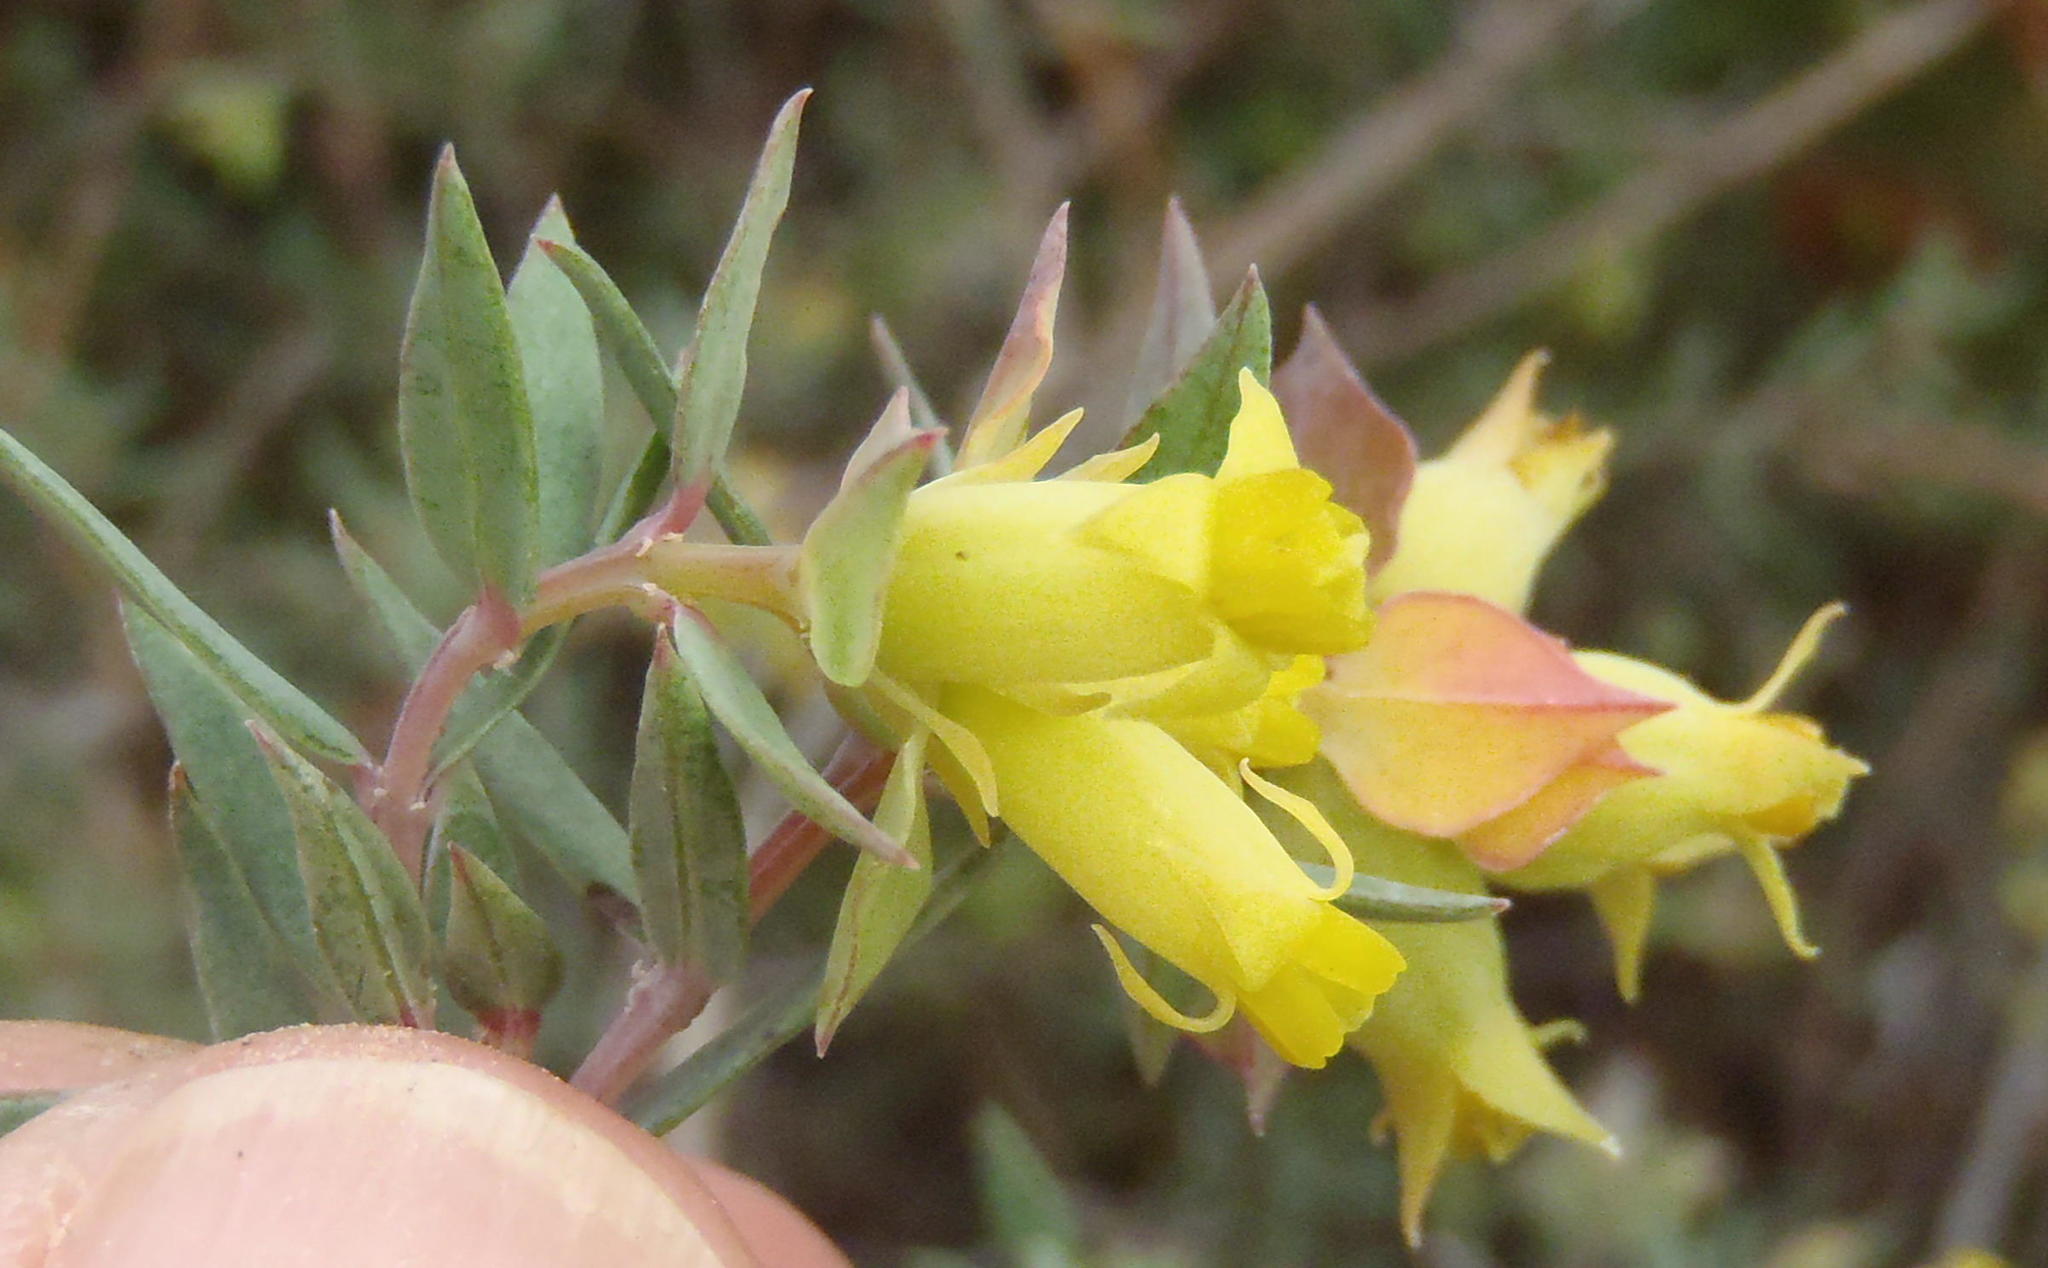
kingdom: Plantae
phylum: Tracheophyta
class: Magnoliopsida
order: Myrtales
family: Penaeaceae
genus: Penaea
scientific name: Penaea acutifolia
